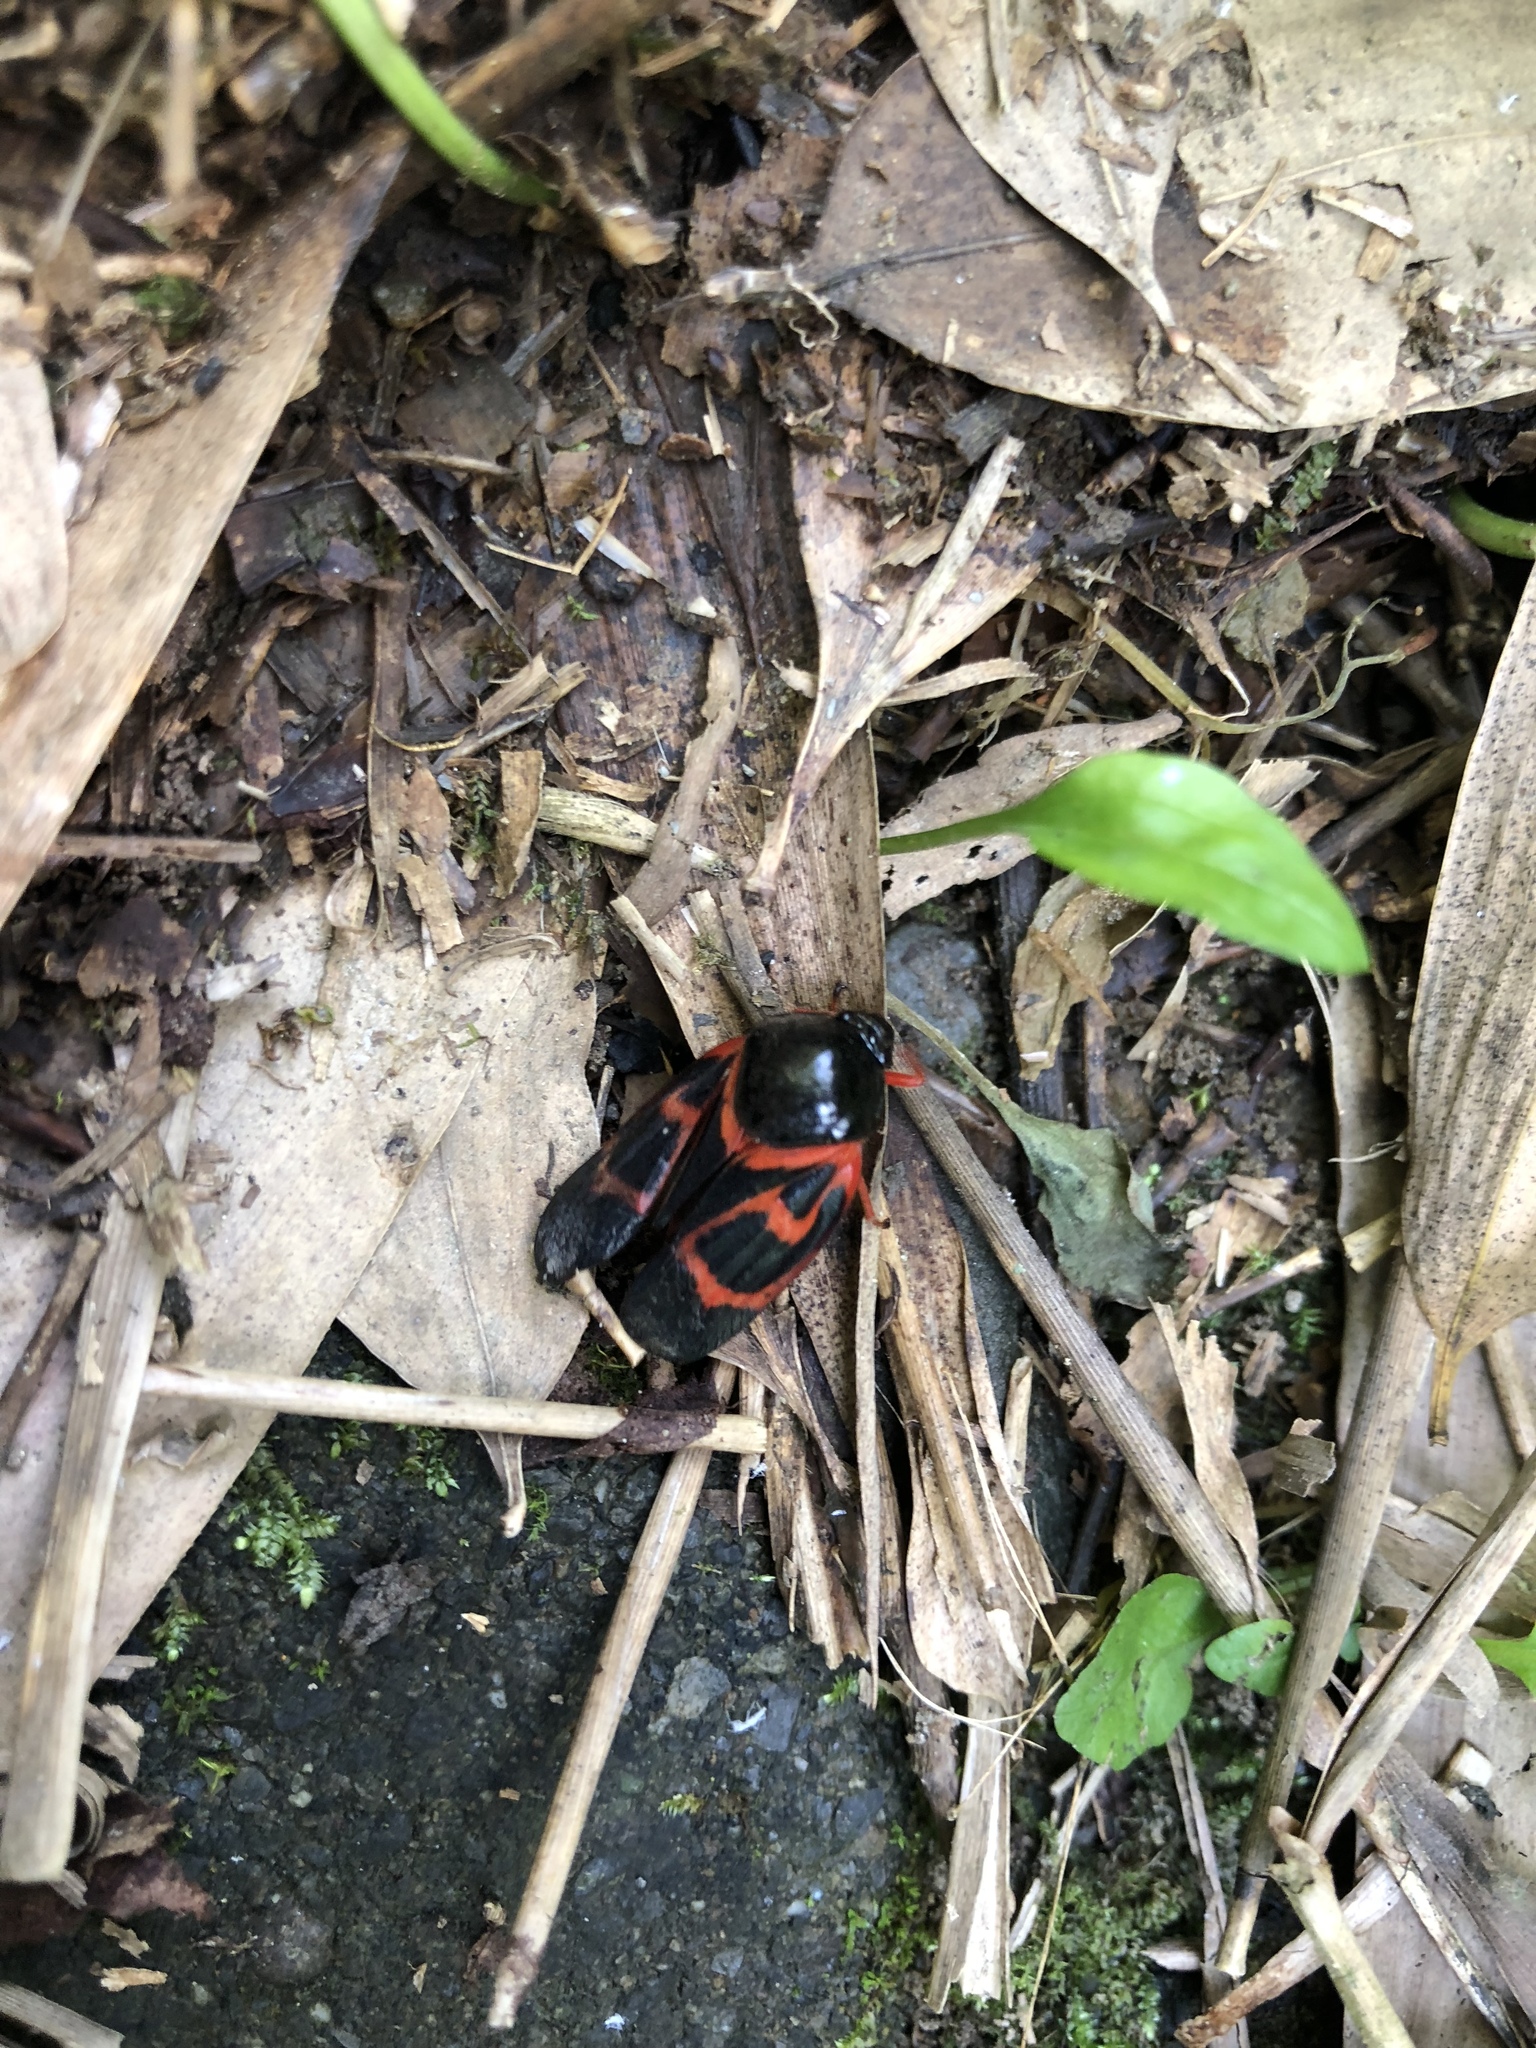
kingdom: Animalia
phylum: Arthropoda
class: Insecta
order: Hemiptera
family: Cercopidae
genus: Okiscarta
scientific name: Okiscarta uchidae
